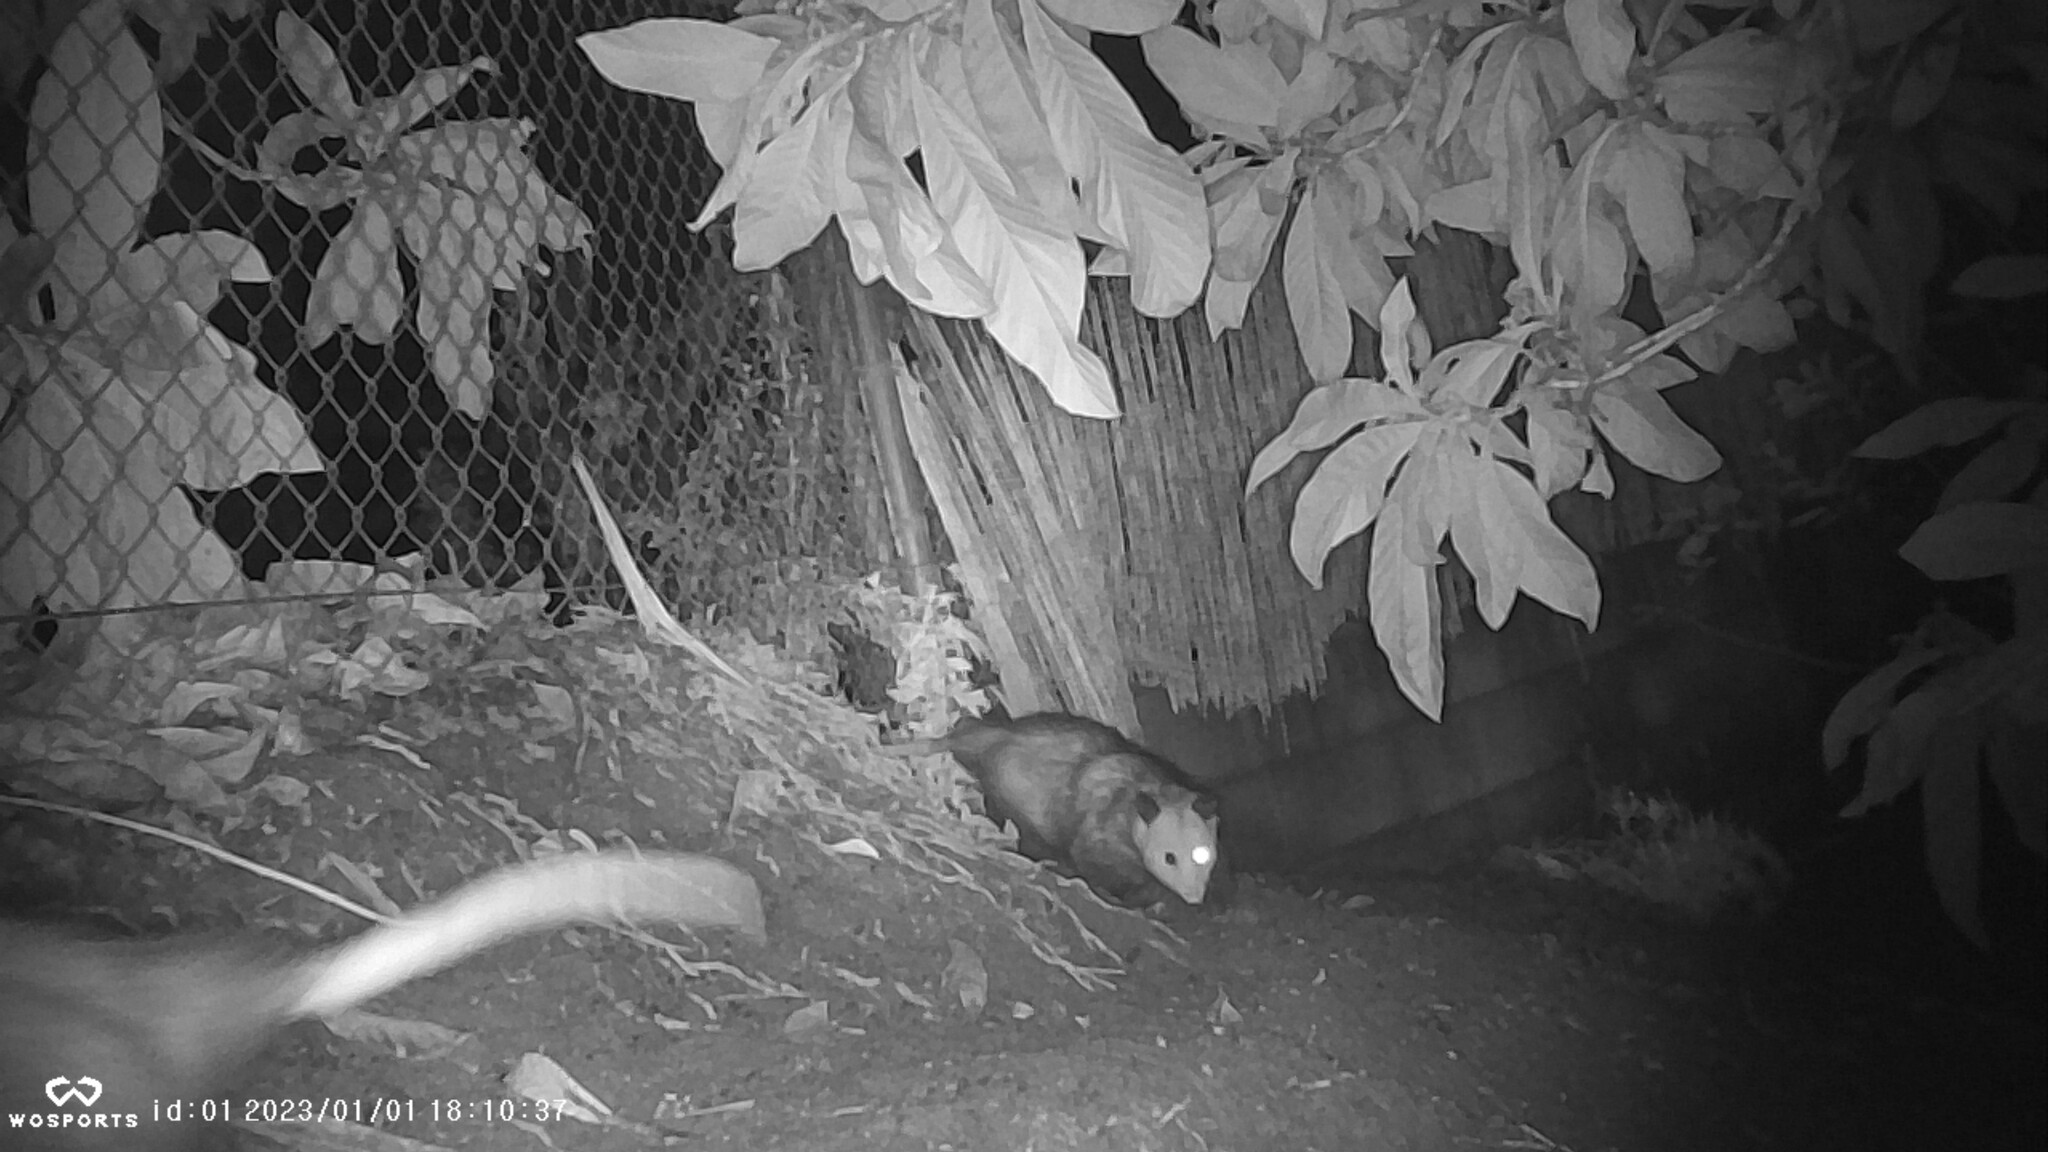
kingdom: Animalia
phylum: Chordata
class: Mammalia
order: Didelphimorphia
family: Didelphidae
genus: Didelphis
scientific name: Didelphis virginiana
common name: Virginia opossum
